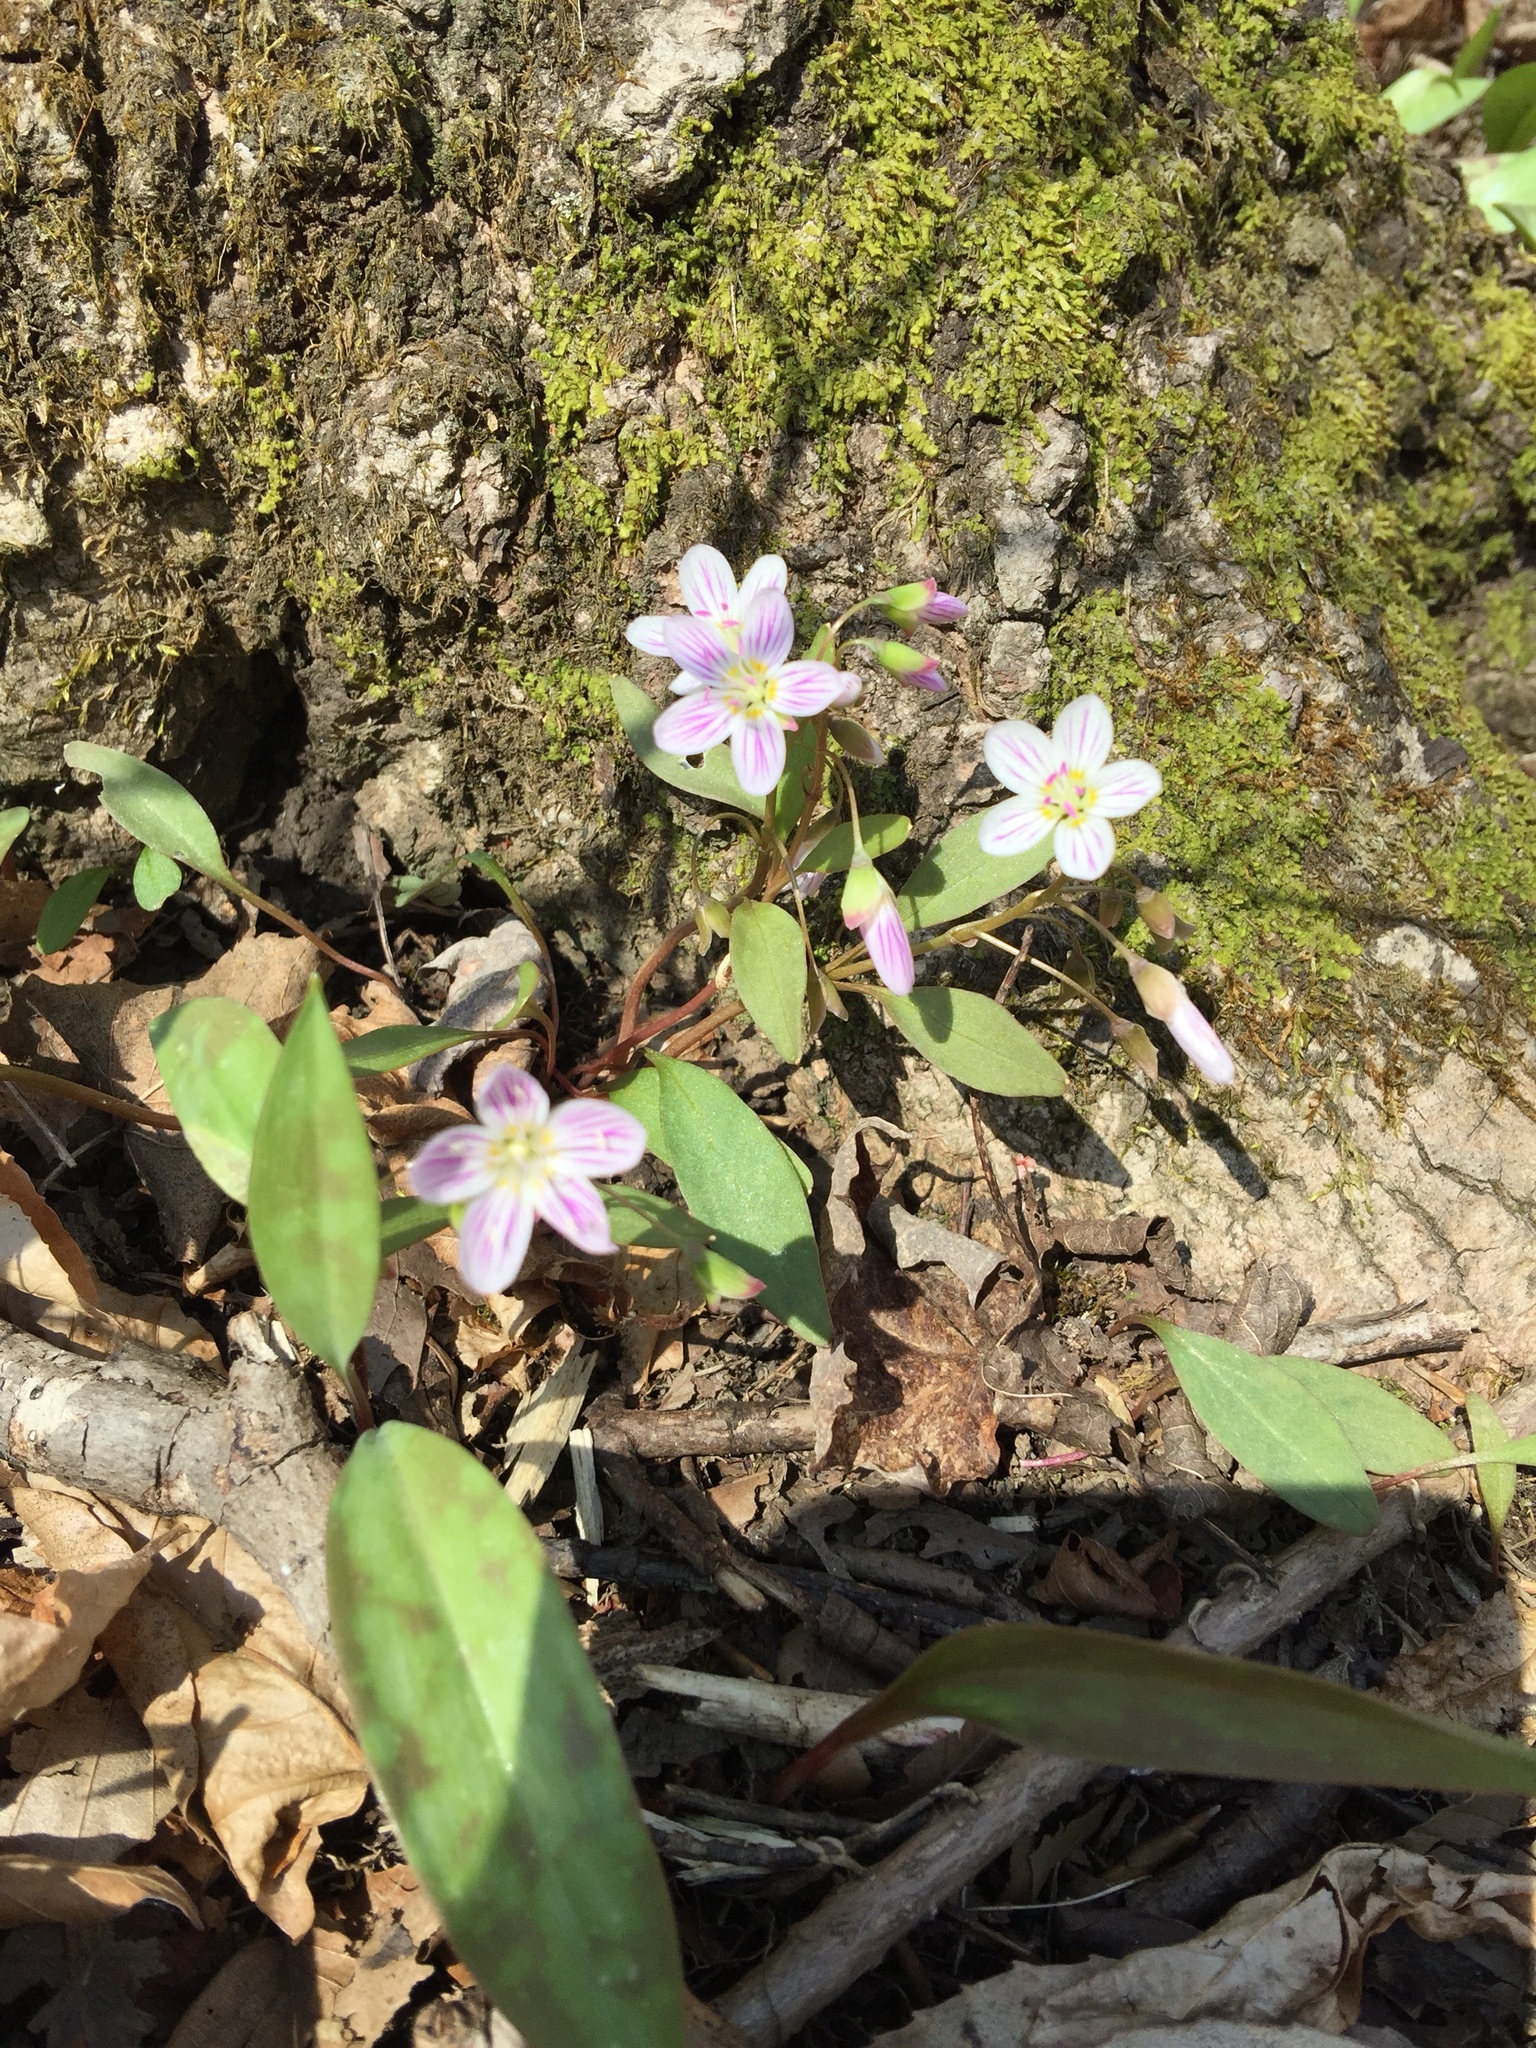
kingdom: Plantae
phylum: Tracheophyta
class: Magnoliopsida
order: Caryophyllales
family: Montiaceae
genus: Claytonia
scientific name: Claytonia caroliniana
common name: Carolina spring beauty
